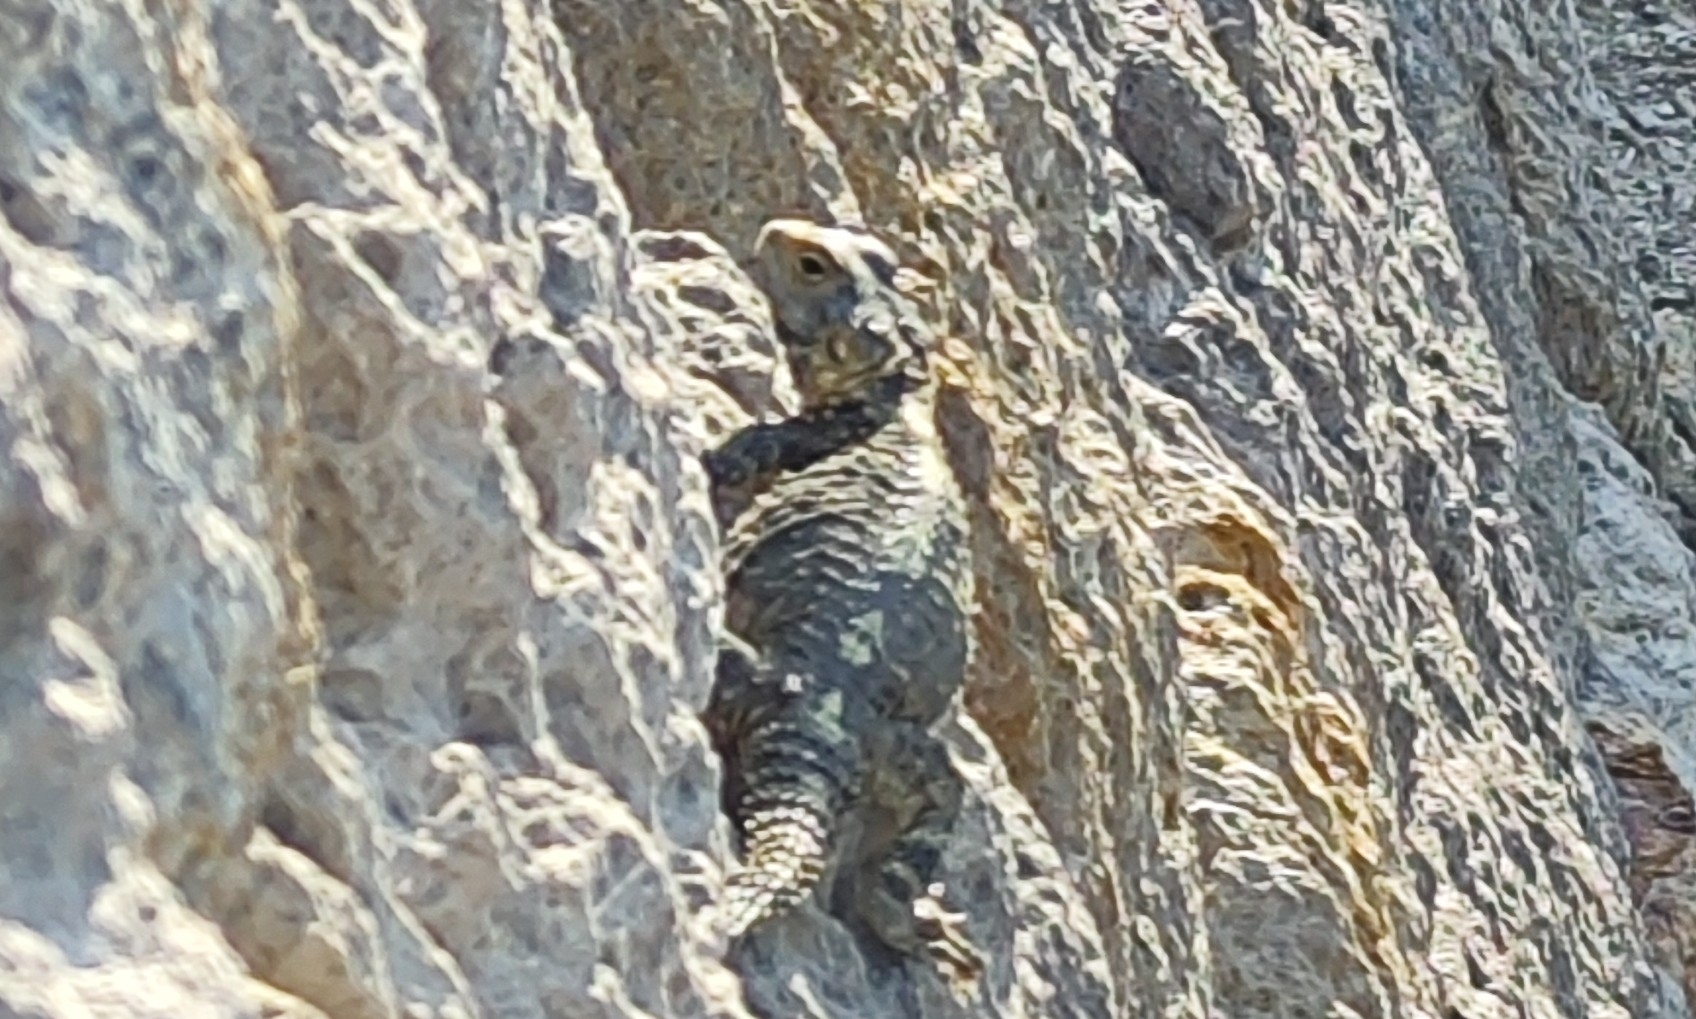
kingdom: Animalia
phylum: Chordata
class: Squamata
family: Agamidae
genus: Stellagama
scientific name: Stellagama stellio
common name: Starred agama
